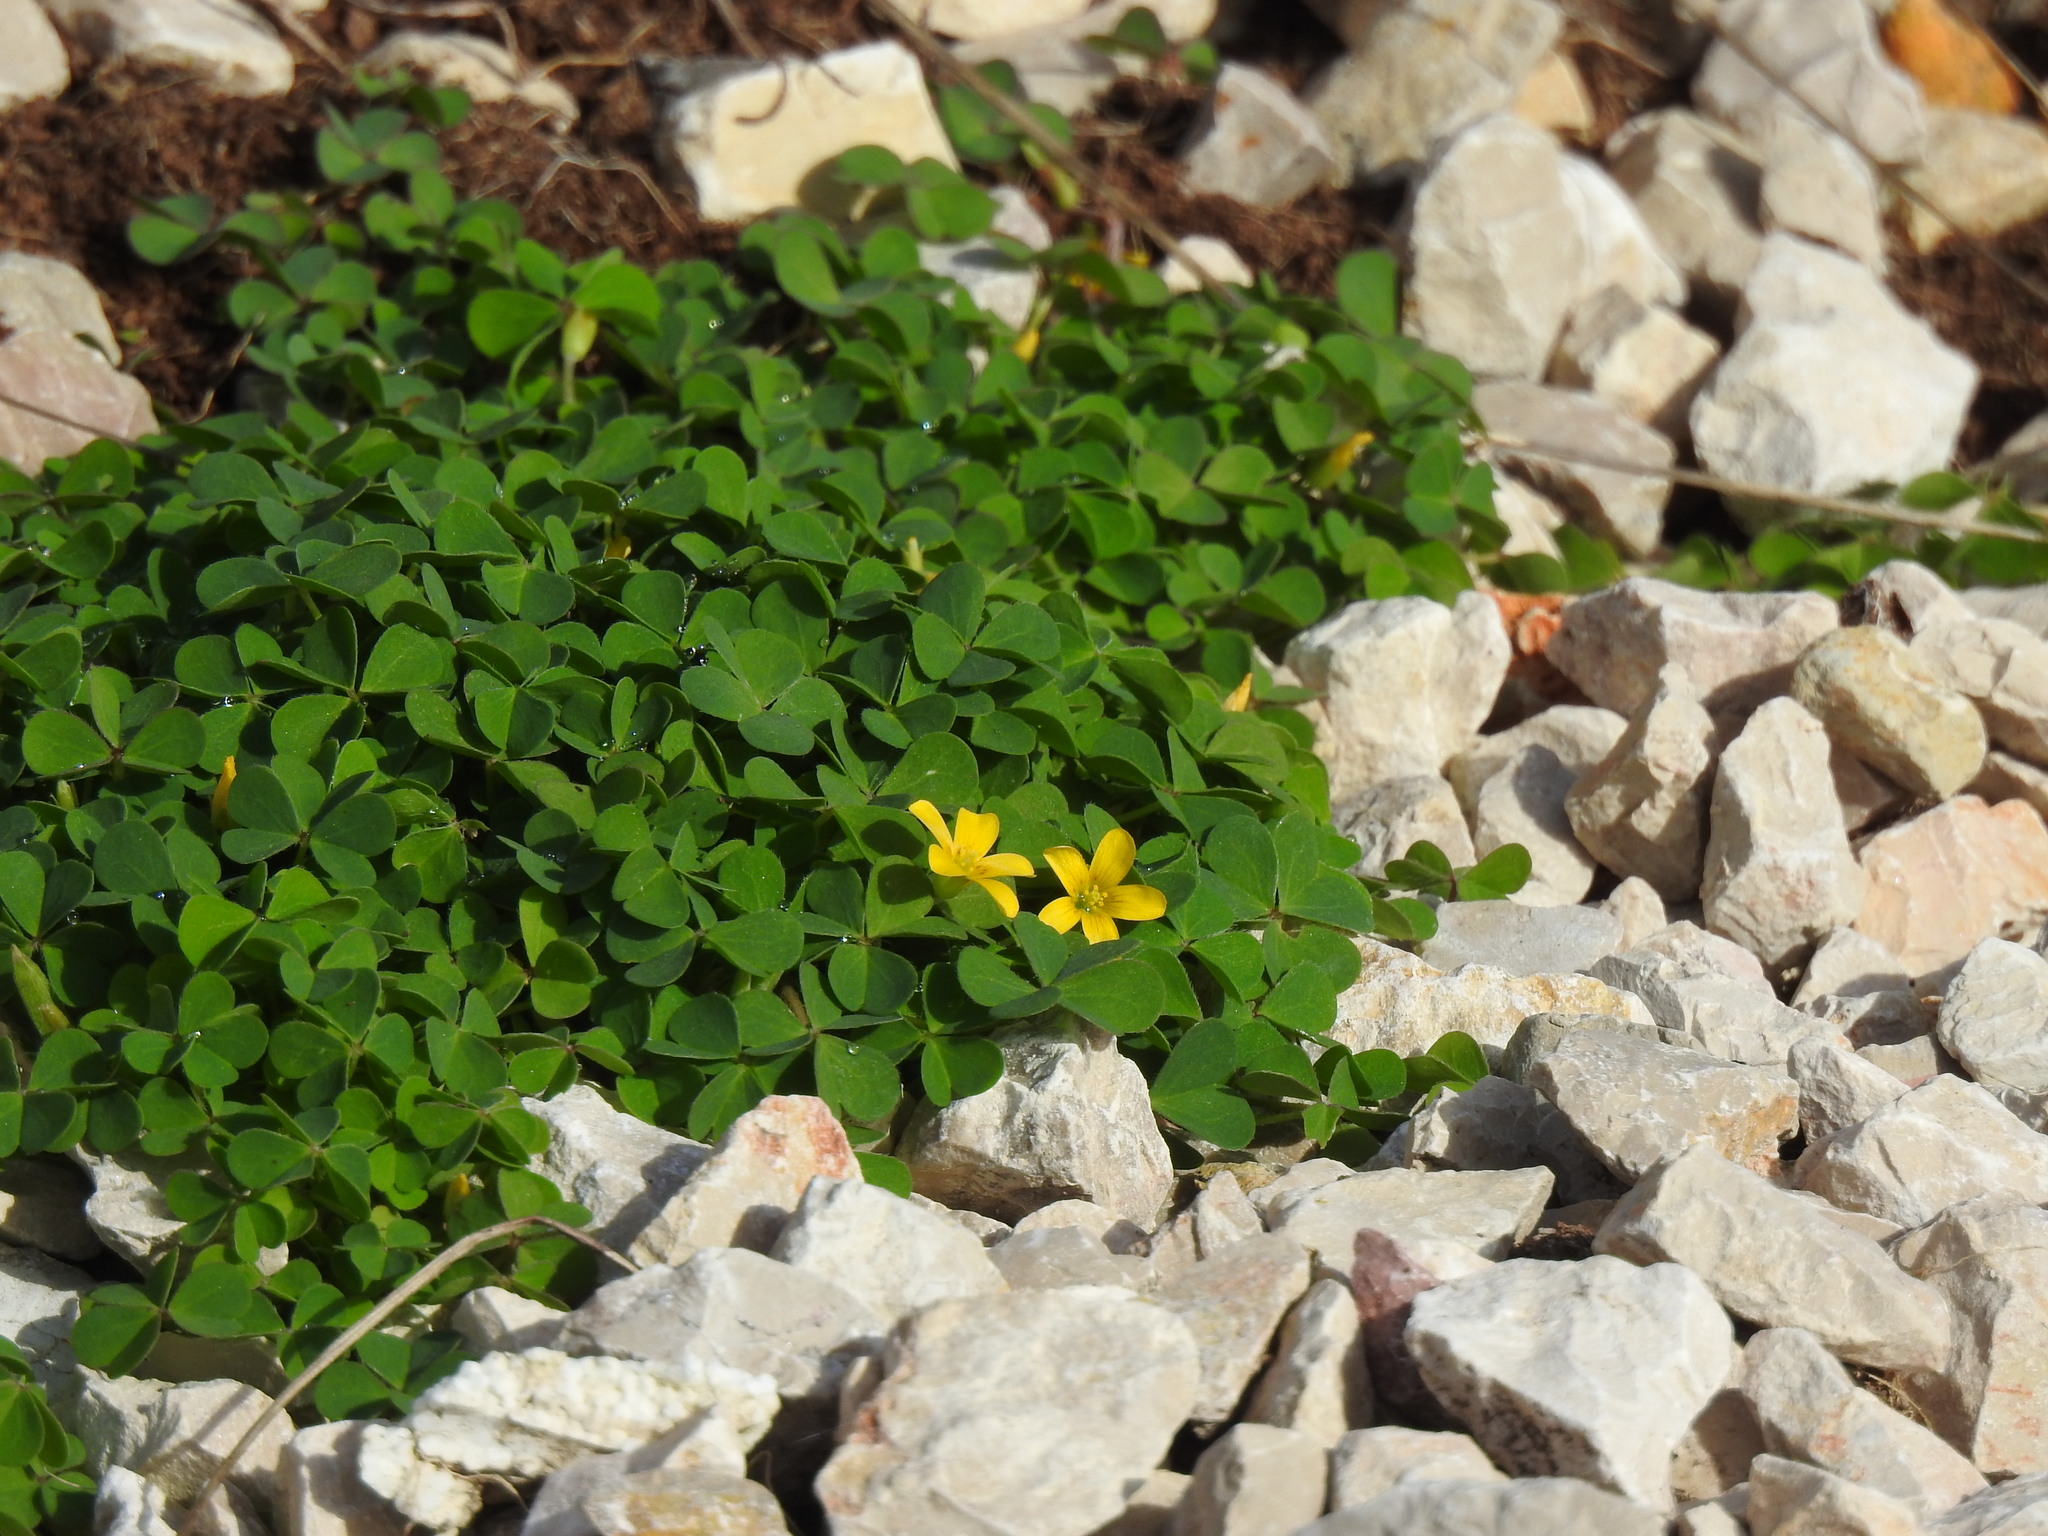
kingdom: Plantae
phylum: Tracheophyta
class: Magnoliopsida
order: Oxalidales
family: Oxalidaceae
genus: Oxalis
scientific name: Oxalis corniculata
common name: Procumbent yellow-sorrel
